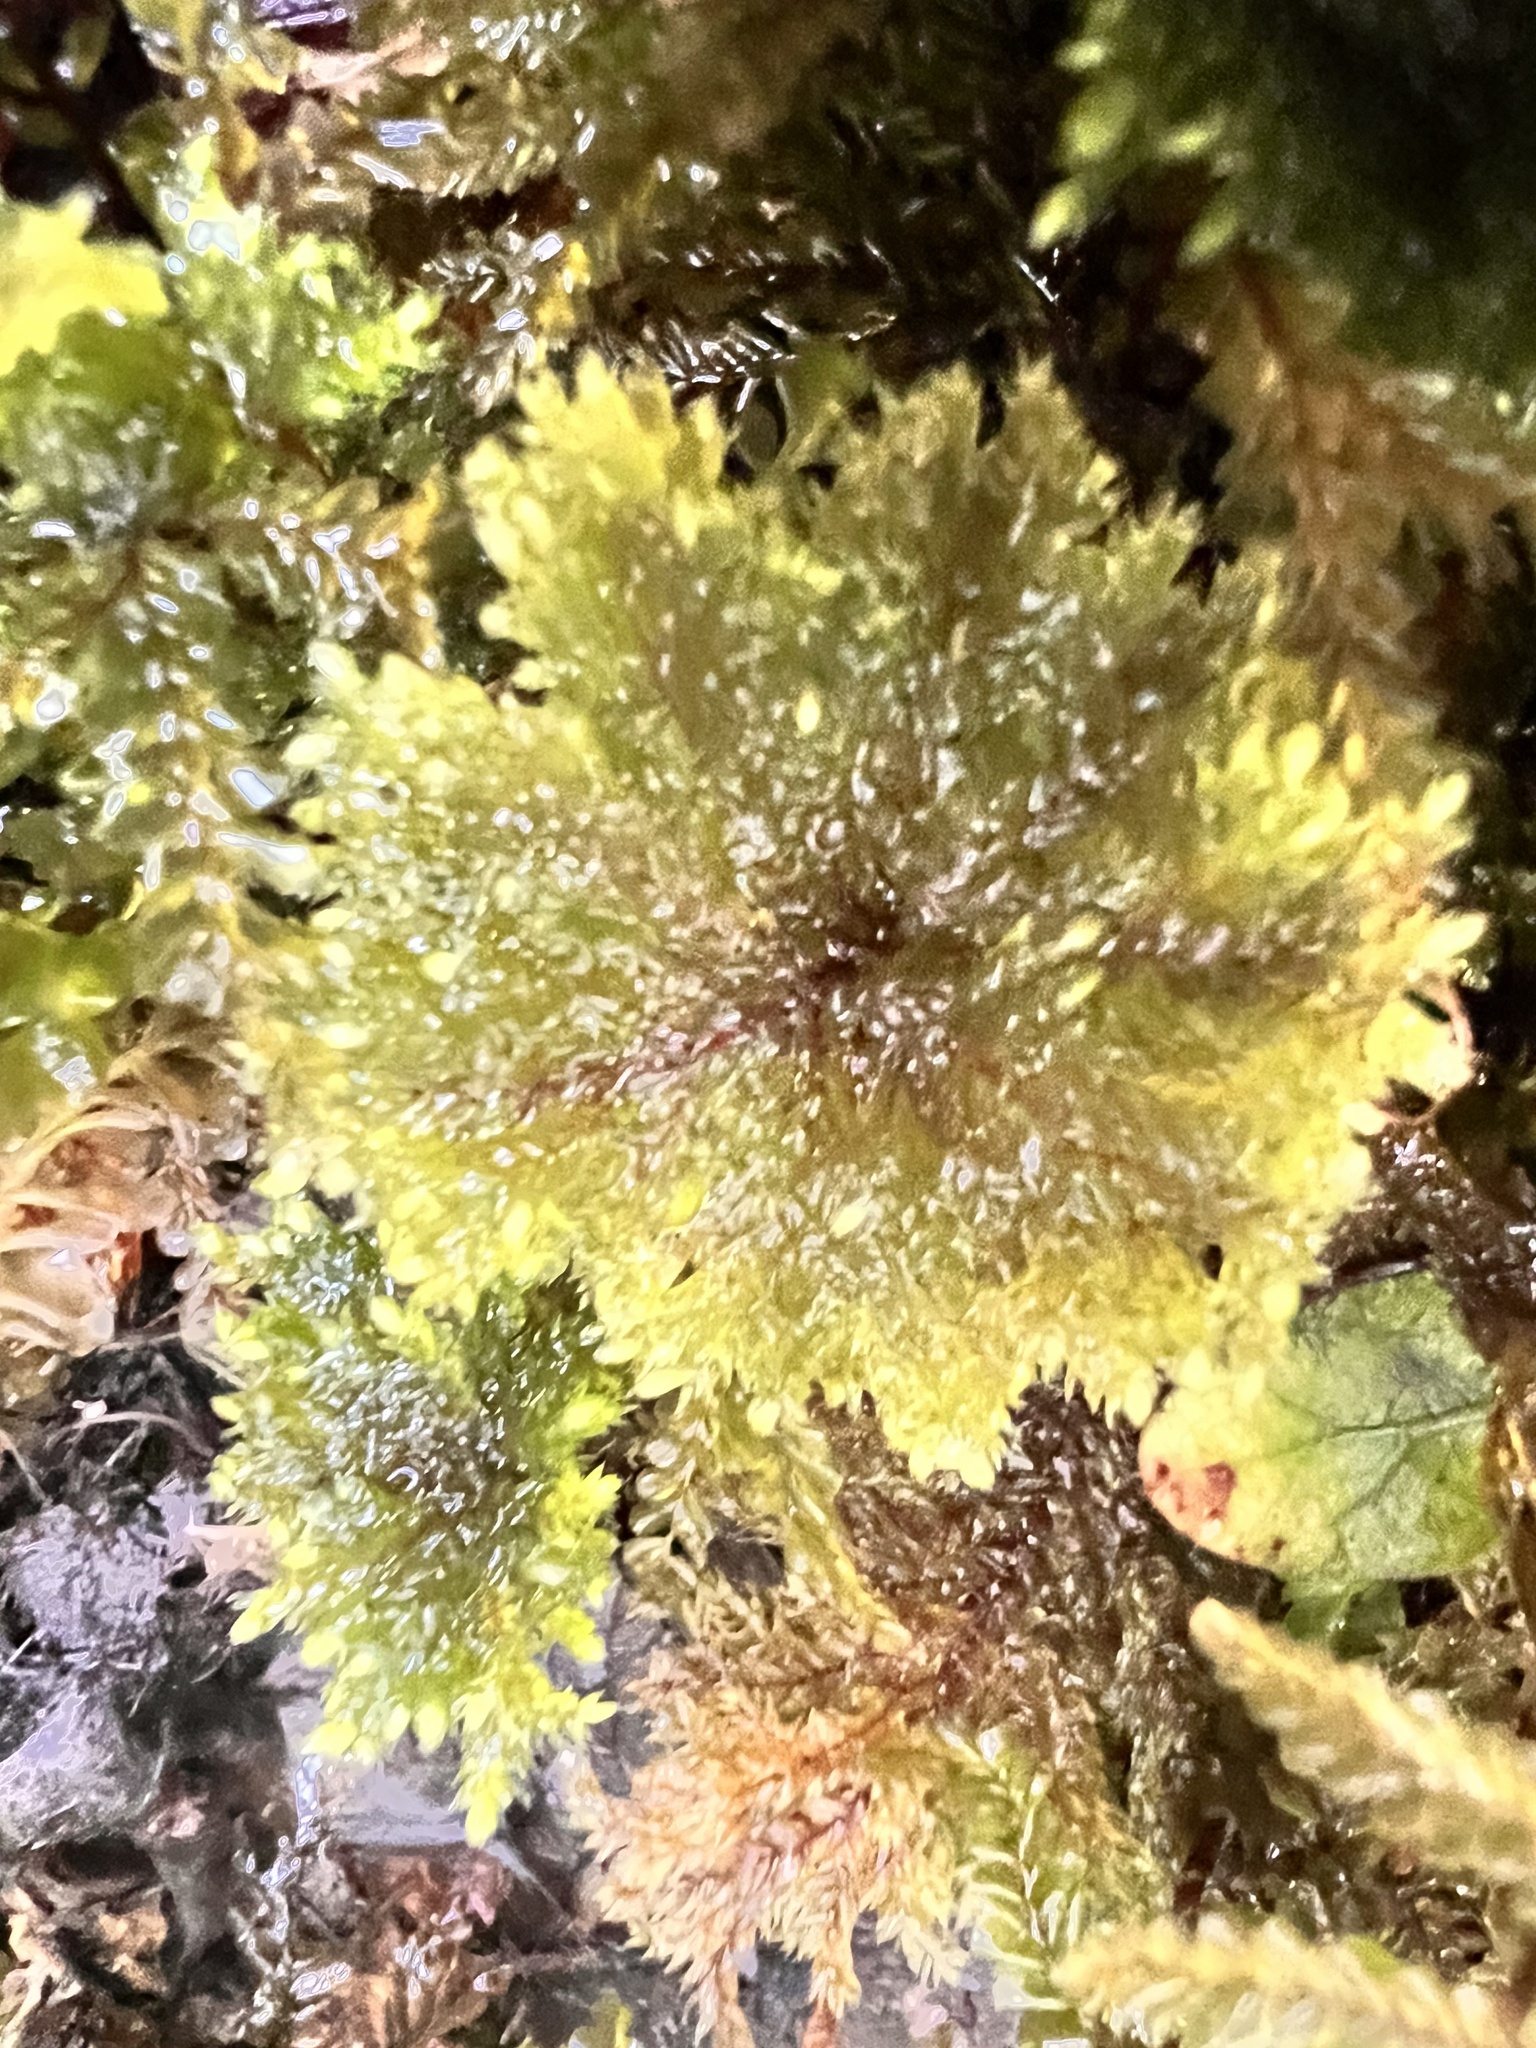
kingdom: Plantae
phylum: Bryophyta
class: Bryopsida
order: Hypopterygiales
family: Hypopterygiaceae
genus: Dendrohypopterygium
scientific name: Dendrohypopterygium filiculiforme
